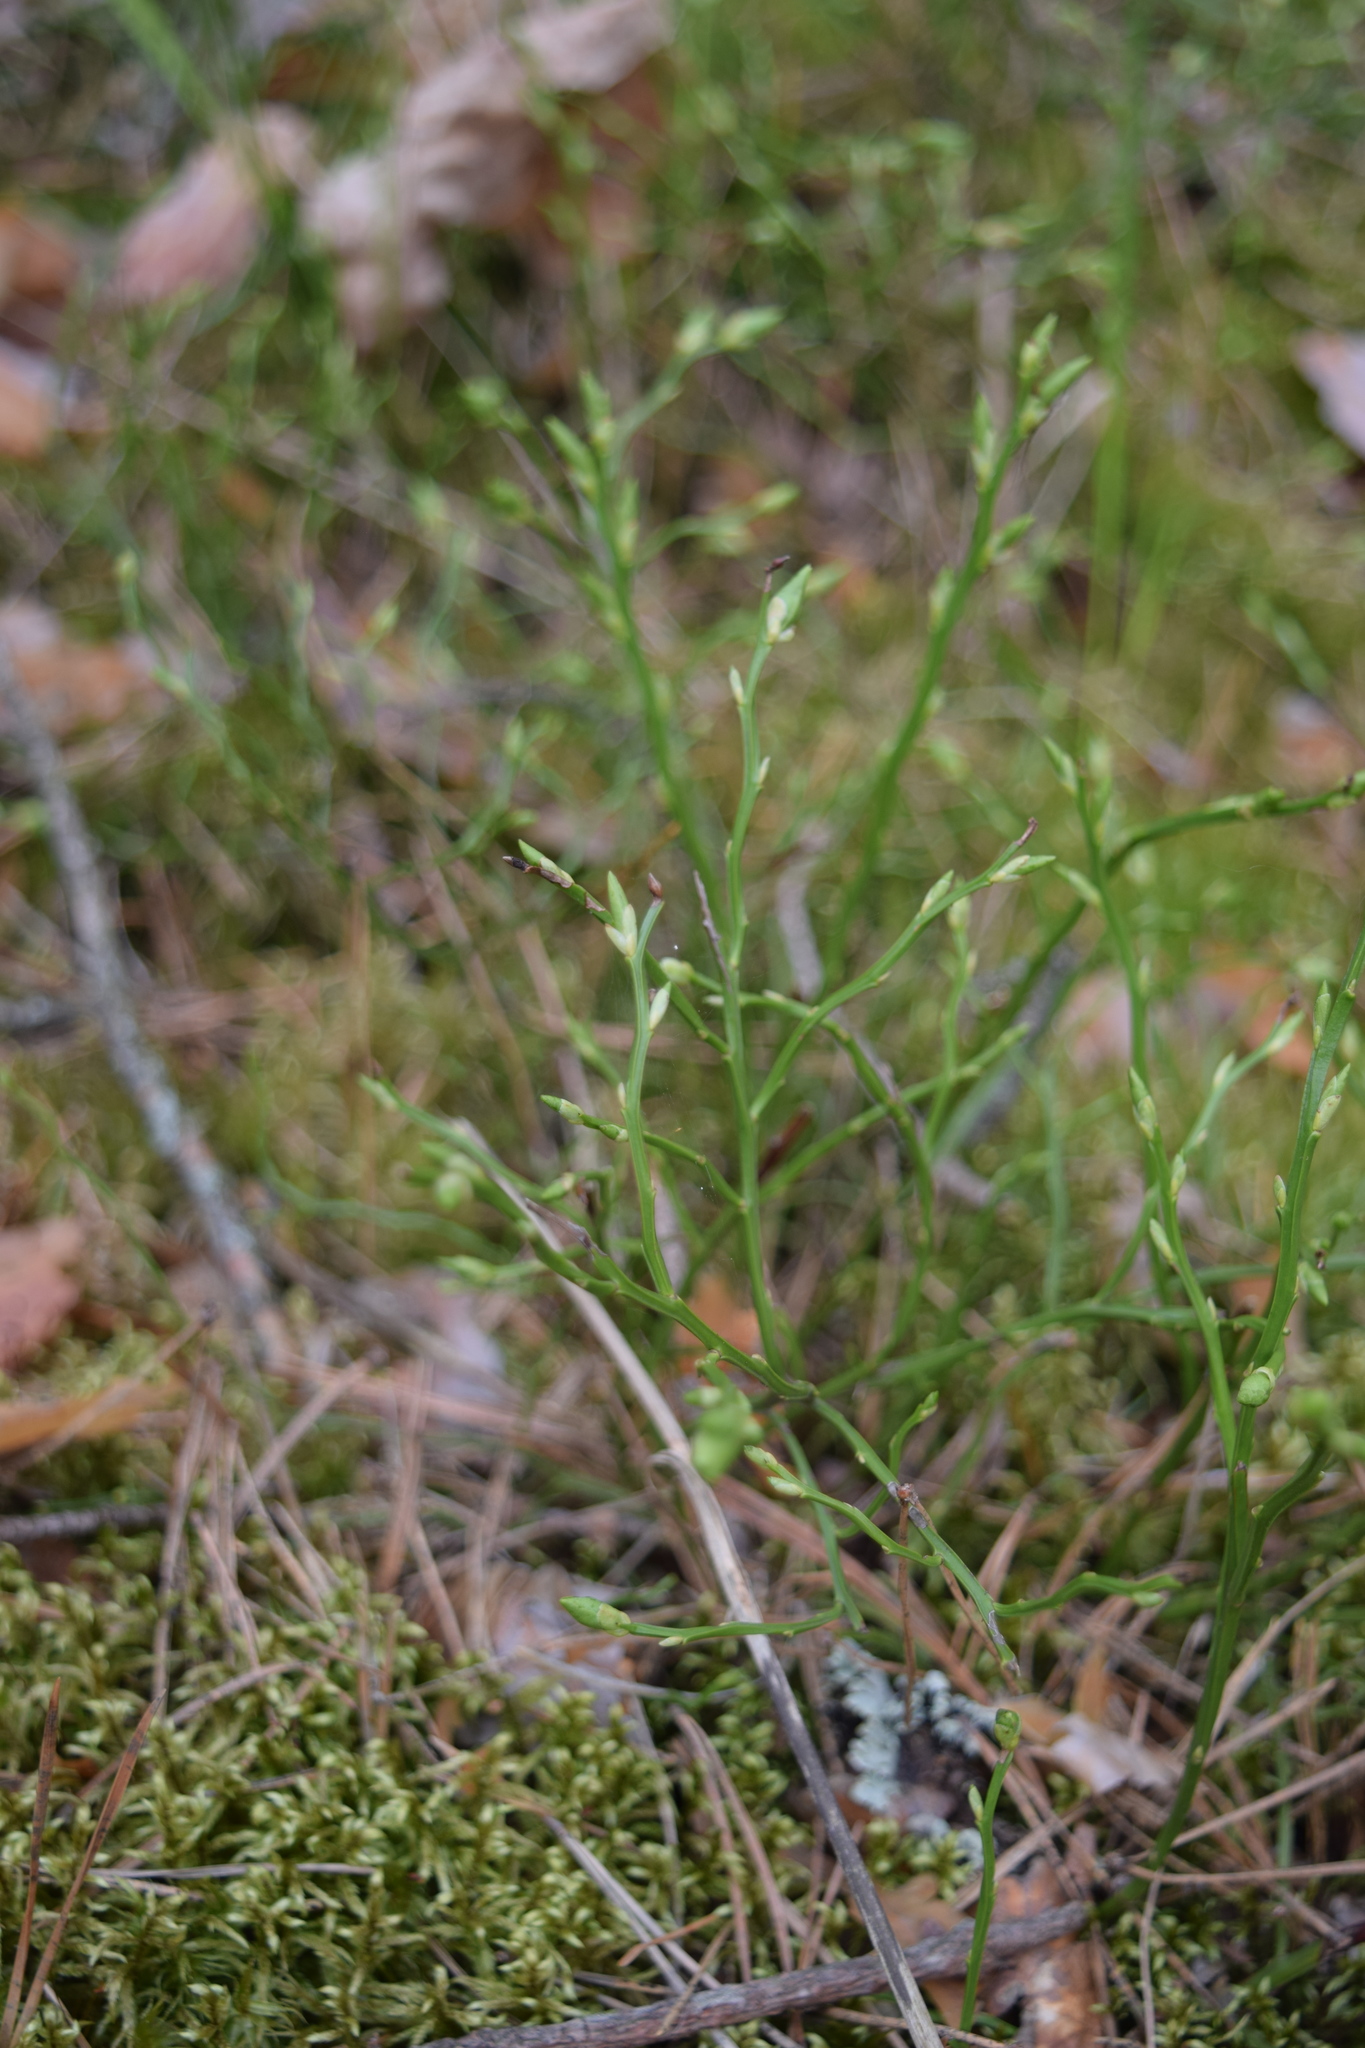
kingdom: Plantae
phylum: Tracheophyta
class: Magnoliopsida
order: Ericales
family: Ericaceae
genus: Vaccinium
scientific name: Vaccinium myrtillus
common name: Bilberry
